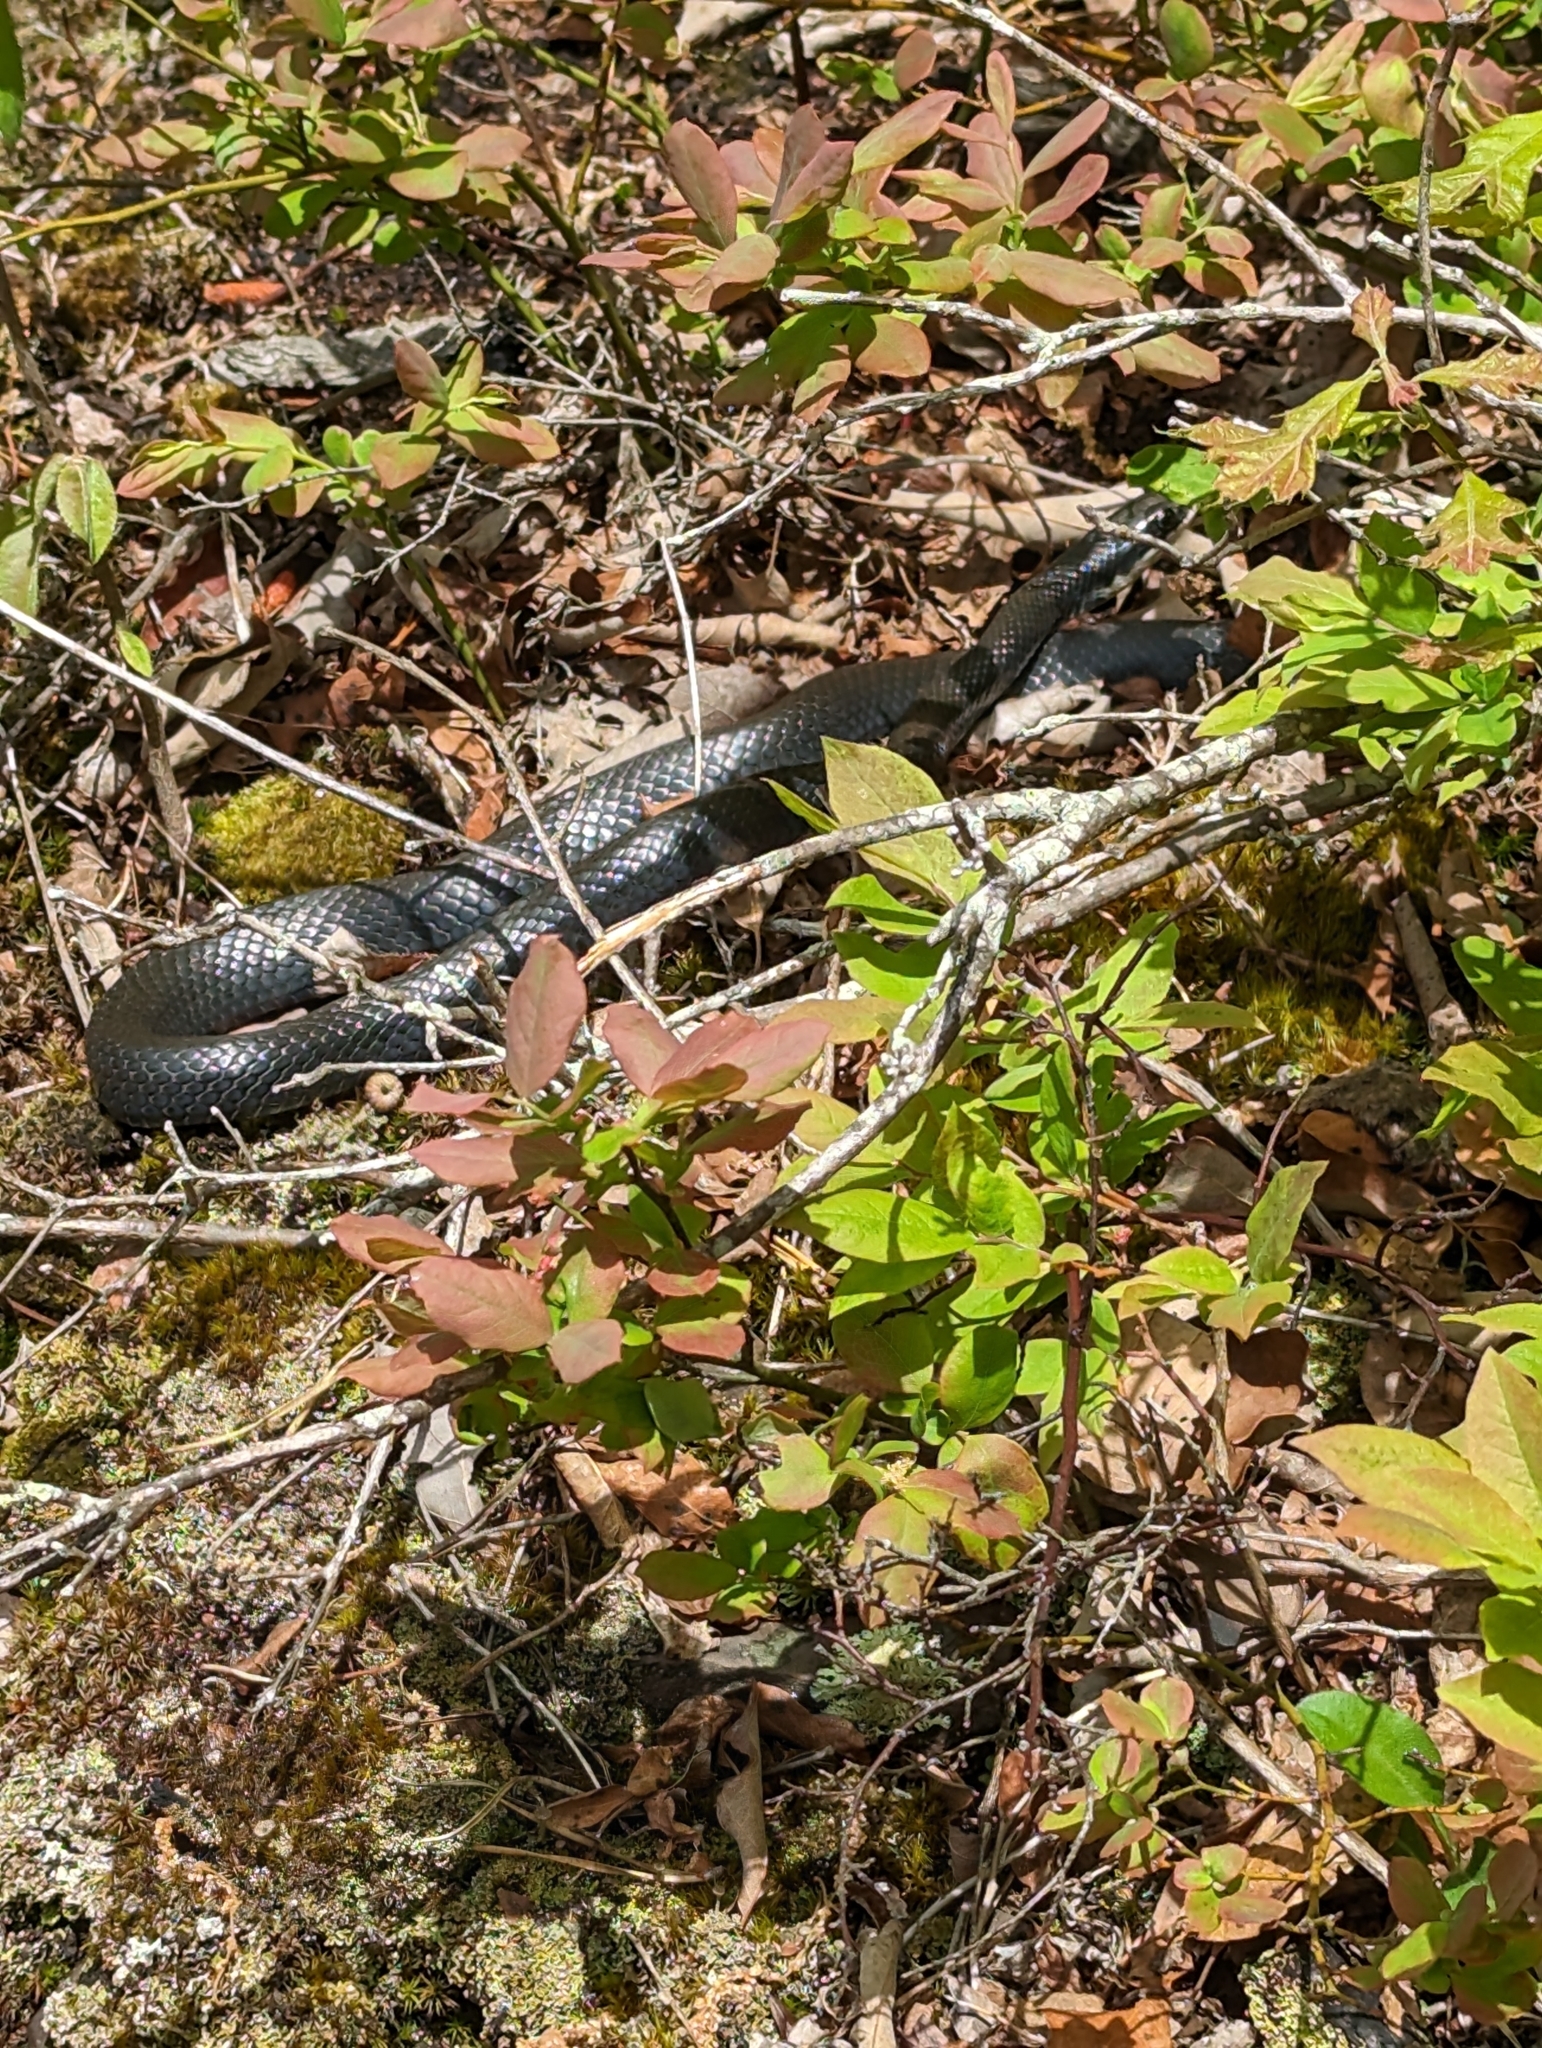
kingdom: Animalia
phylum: Chordata
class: Squamata
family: Colubridae
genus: Coluber
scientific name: Coluber constrictor
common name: Eastern racer
